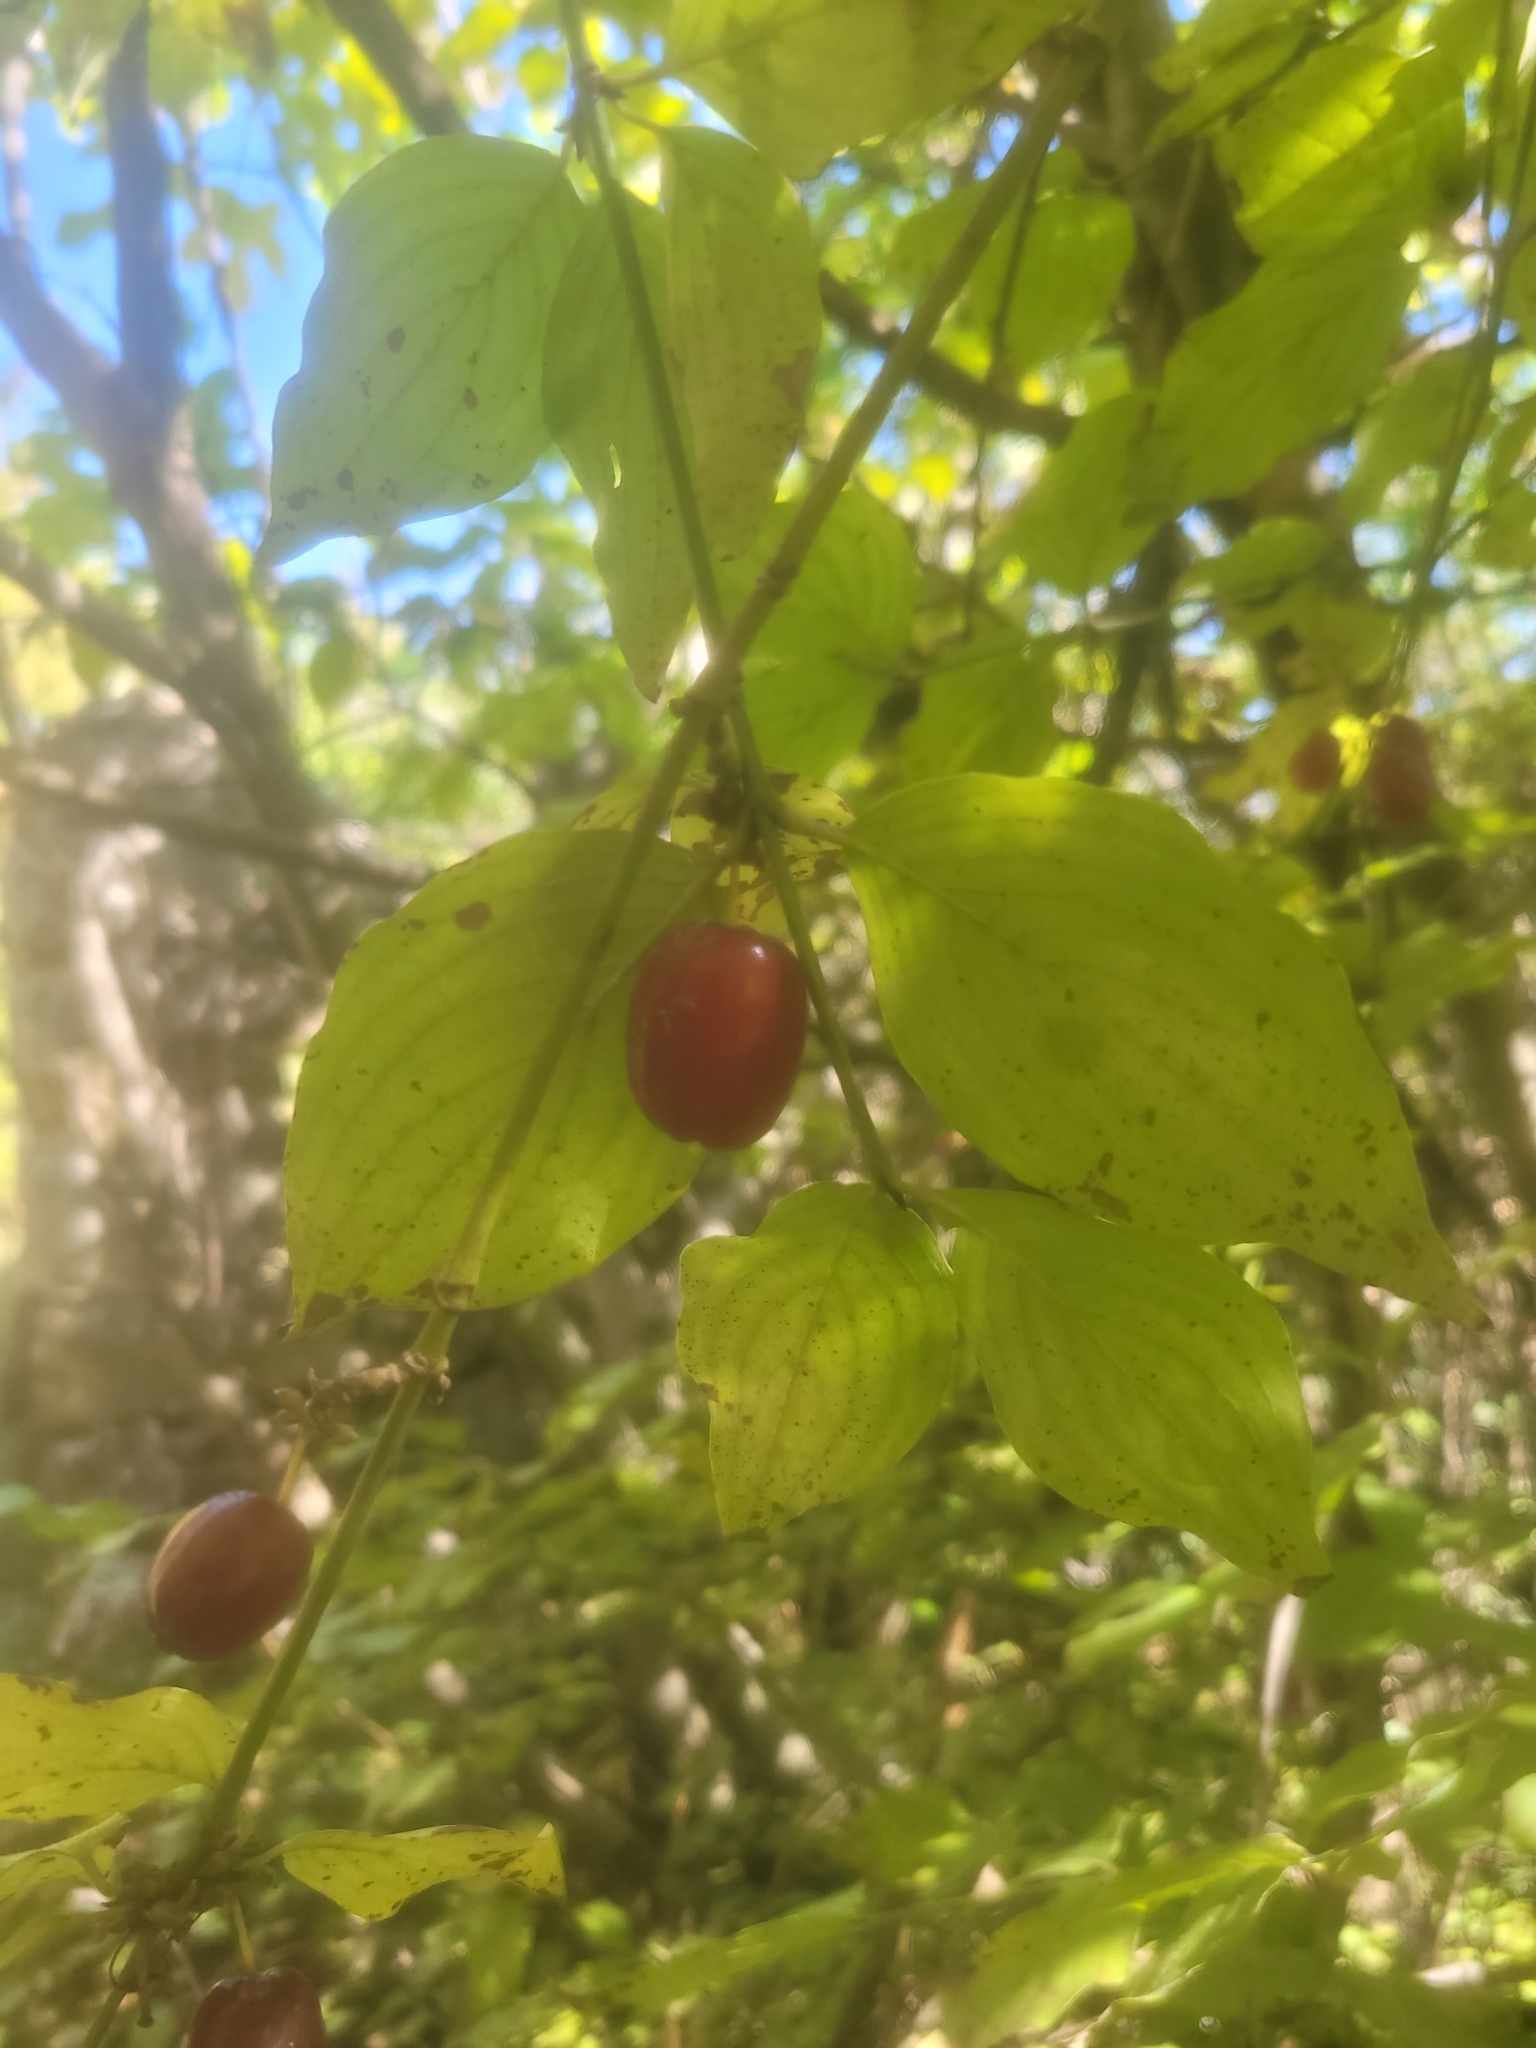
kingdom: Plantae
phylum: Tracheophyta
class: Magnoliopsida
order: Cornales
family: Cornaceae
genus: Cornus
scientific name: Cornus mas
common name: Cornelian-cherry
